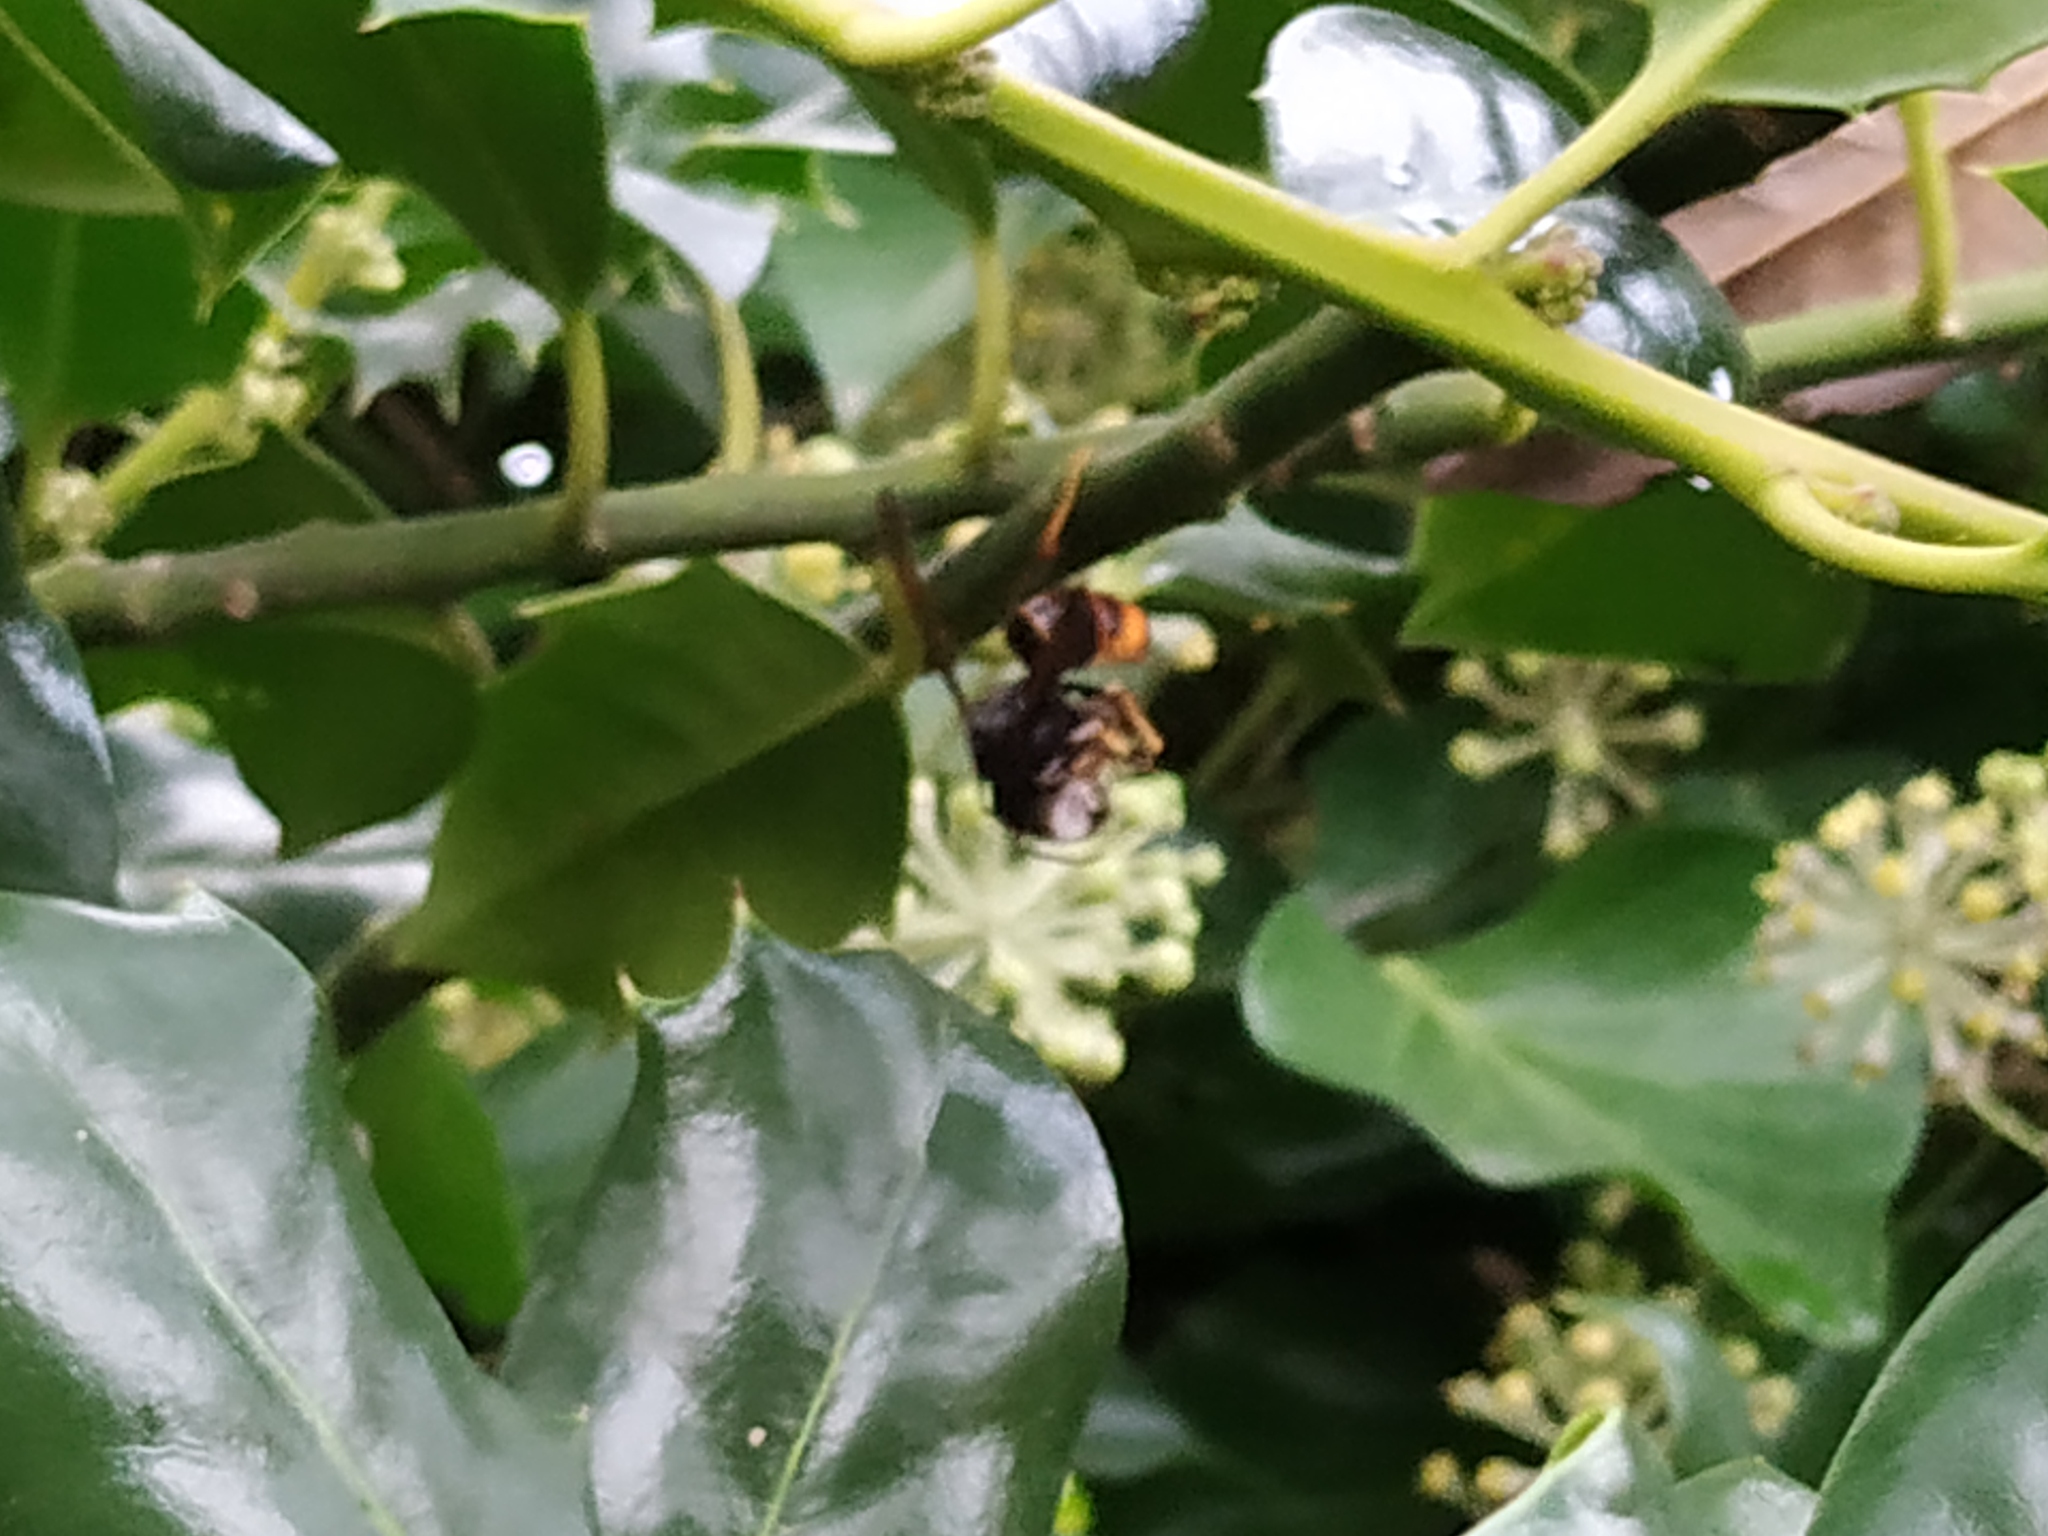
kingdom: Animalia
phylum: Arthropoda
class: Insecta
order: Hymenoptera
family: Vespidae
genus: Vespa
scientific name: Vespa velutina
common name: Asian hornet
